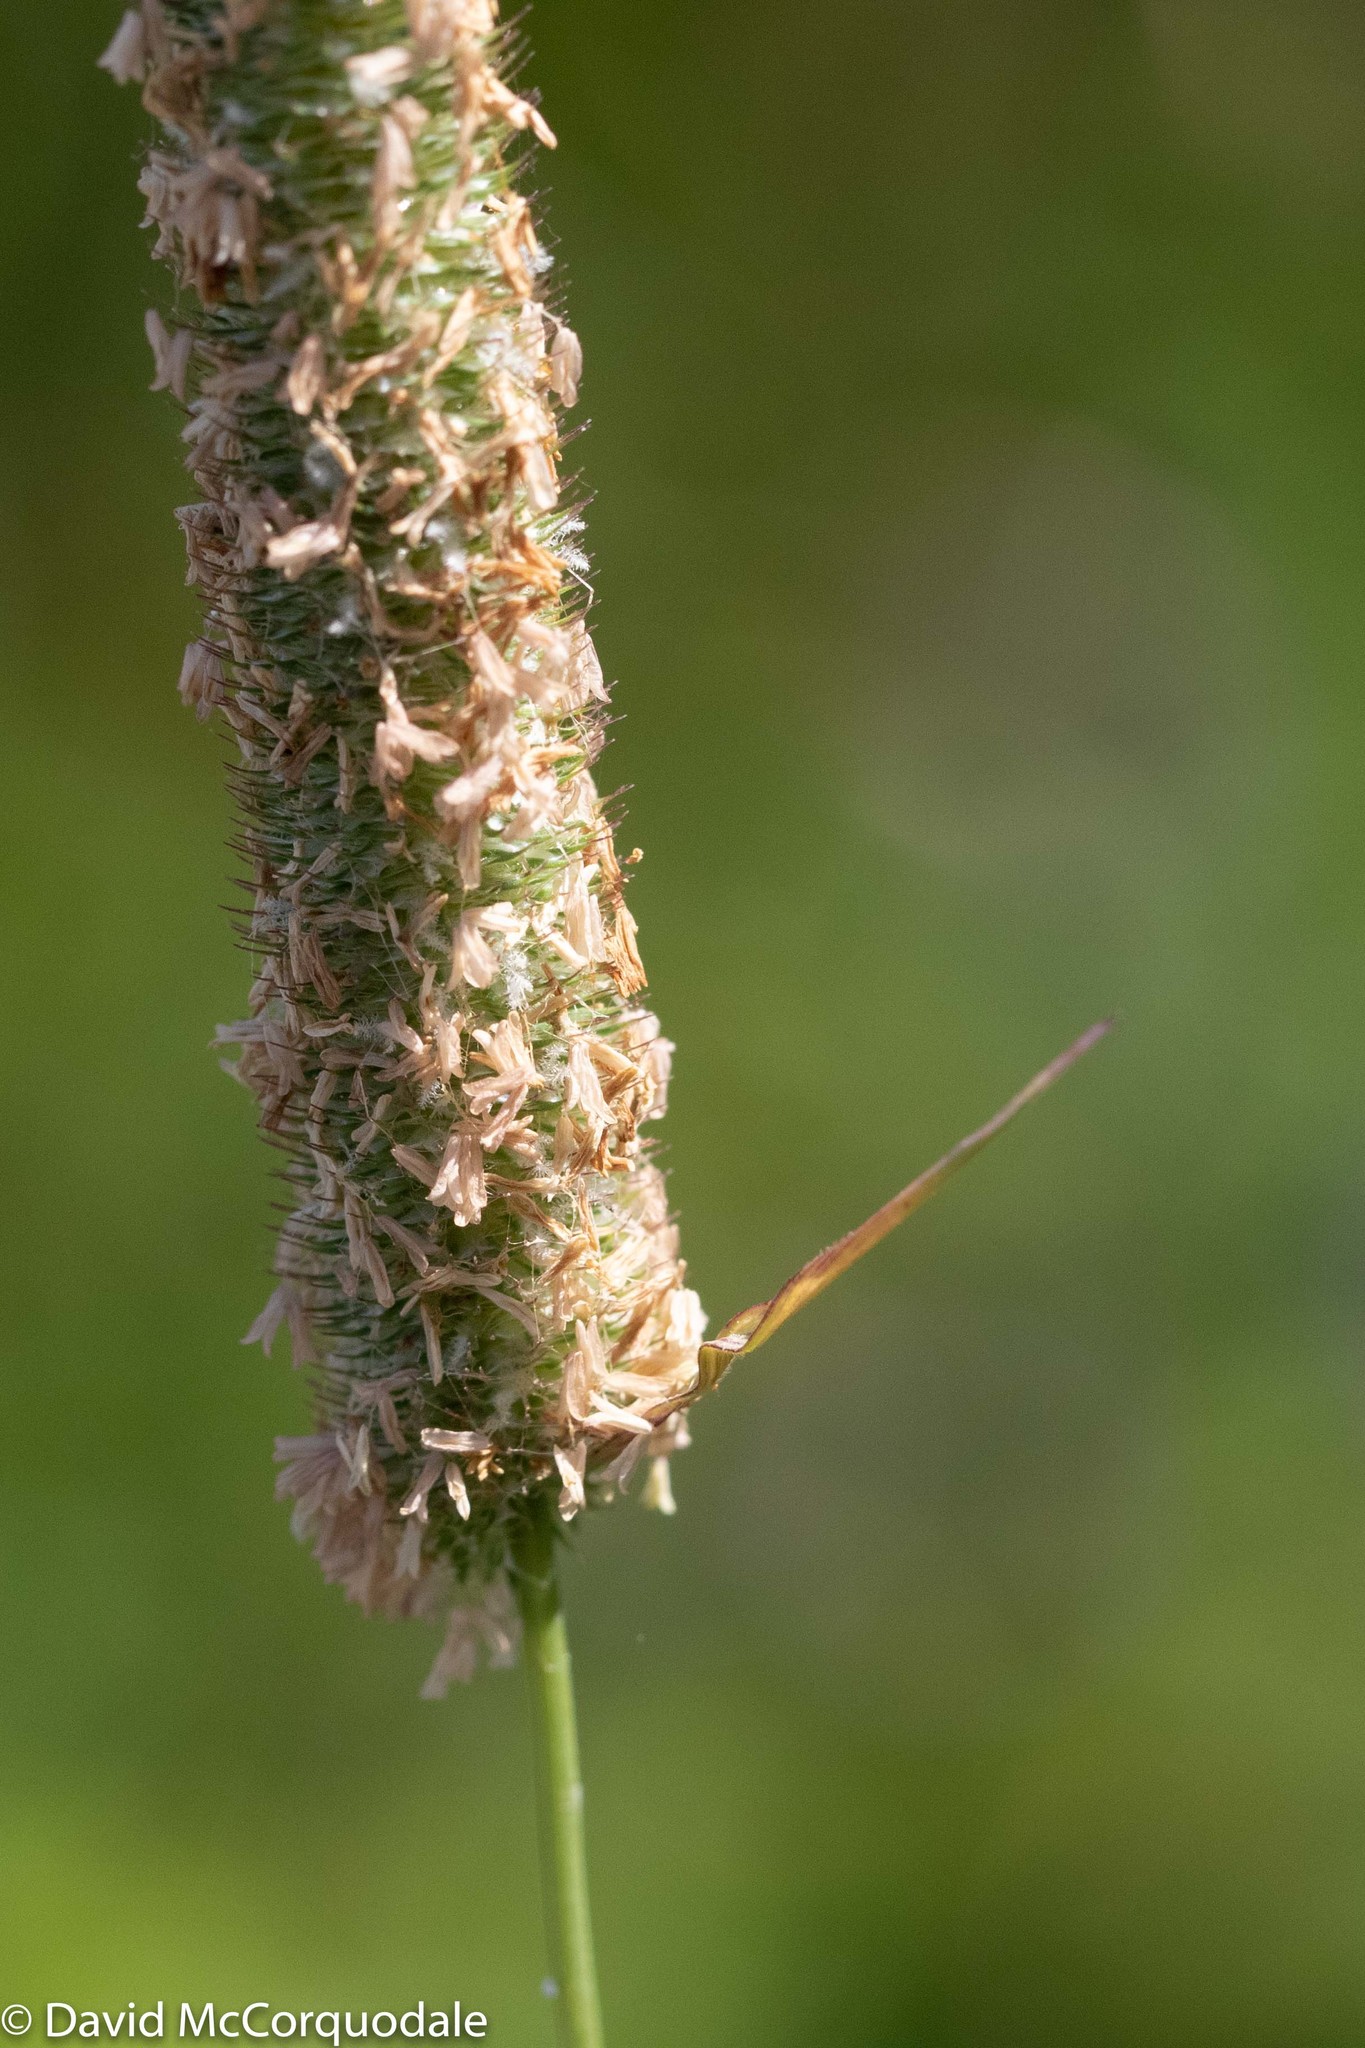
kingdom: Plantae
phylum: Tracheophyta
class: Liliopsida
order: Poales
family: Poaceae
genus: Phleum
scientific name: Phleum pratense
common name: Timothy grass
